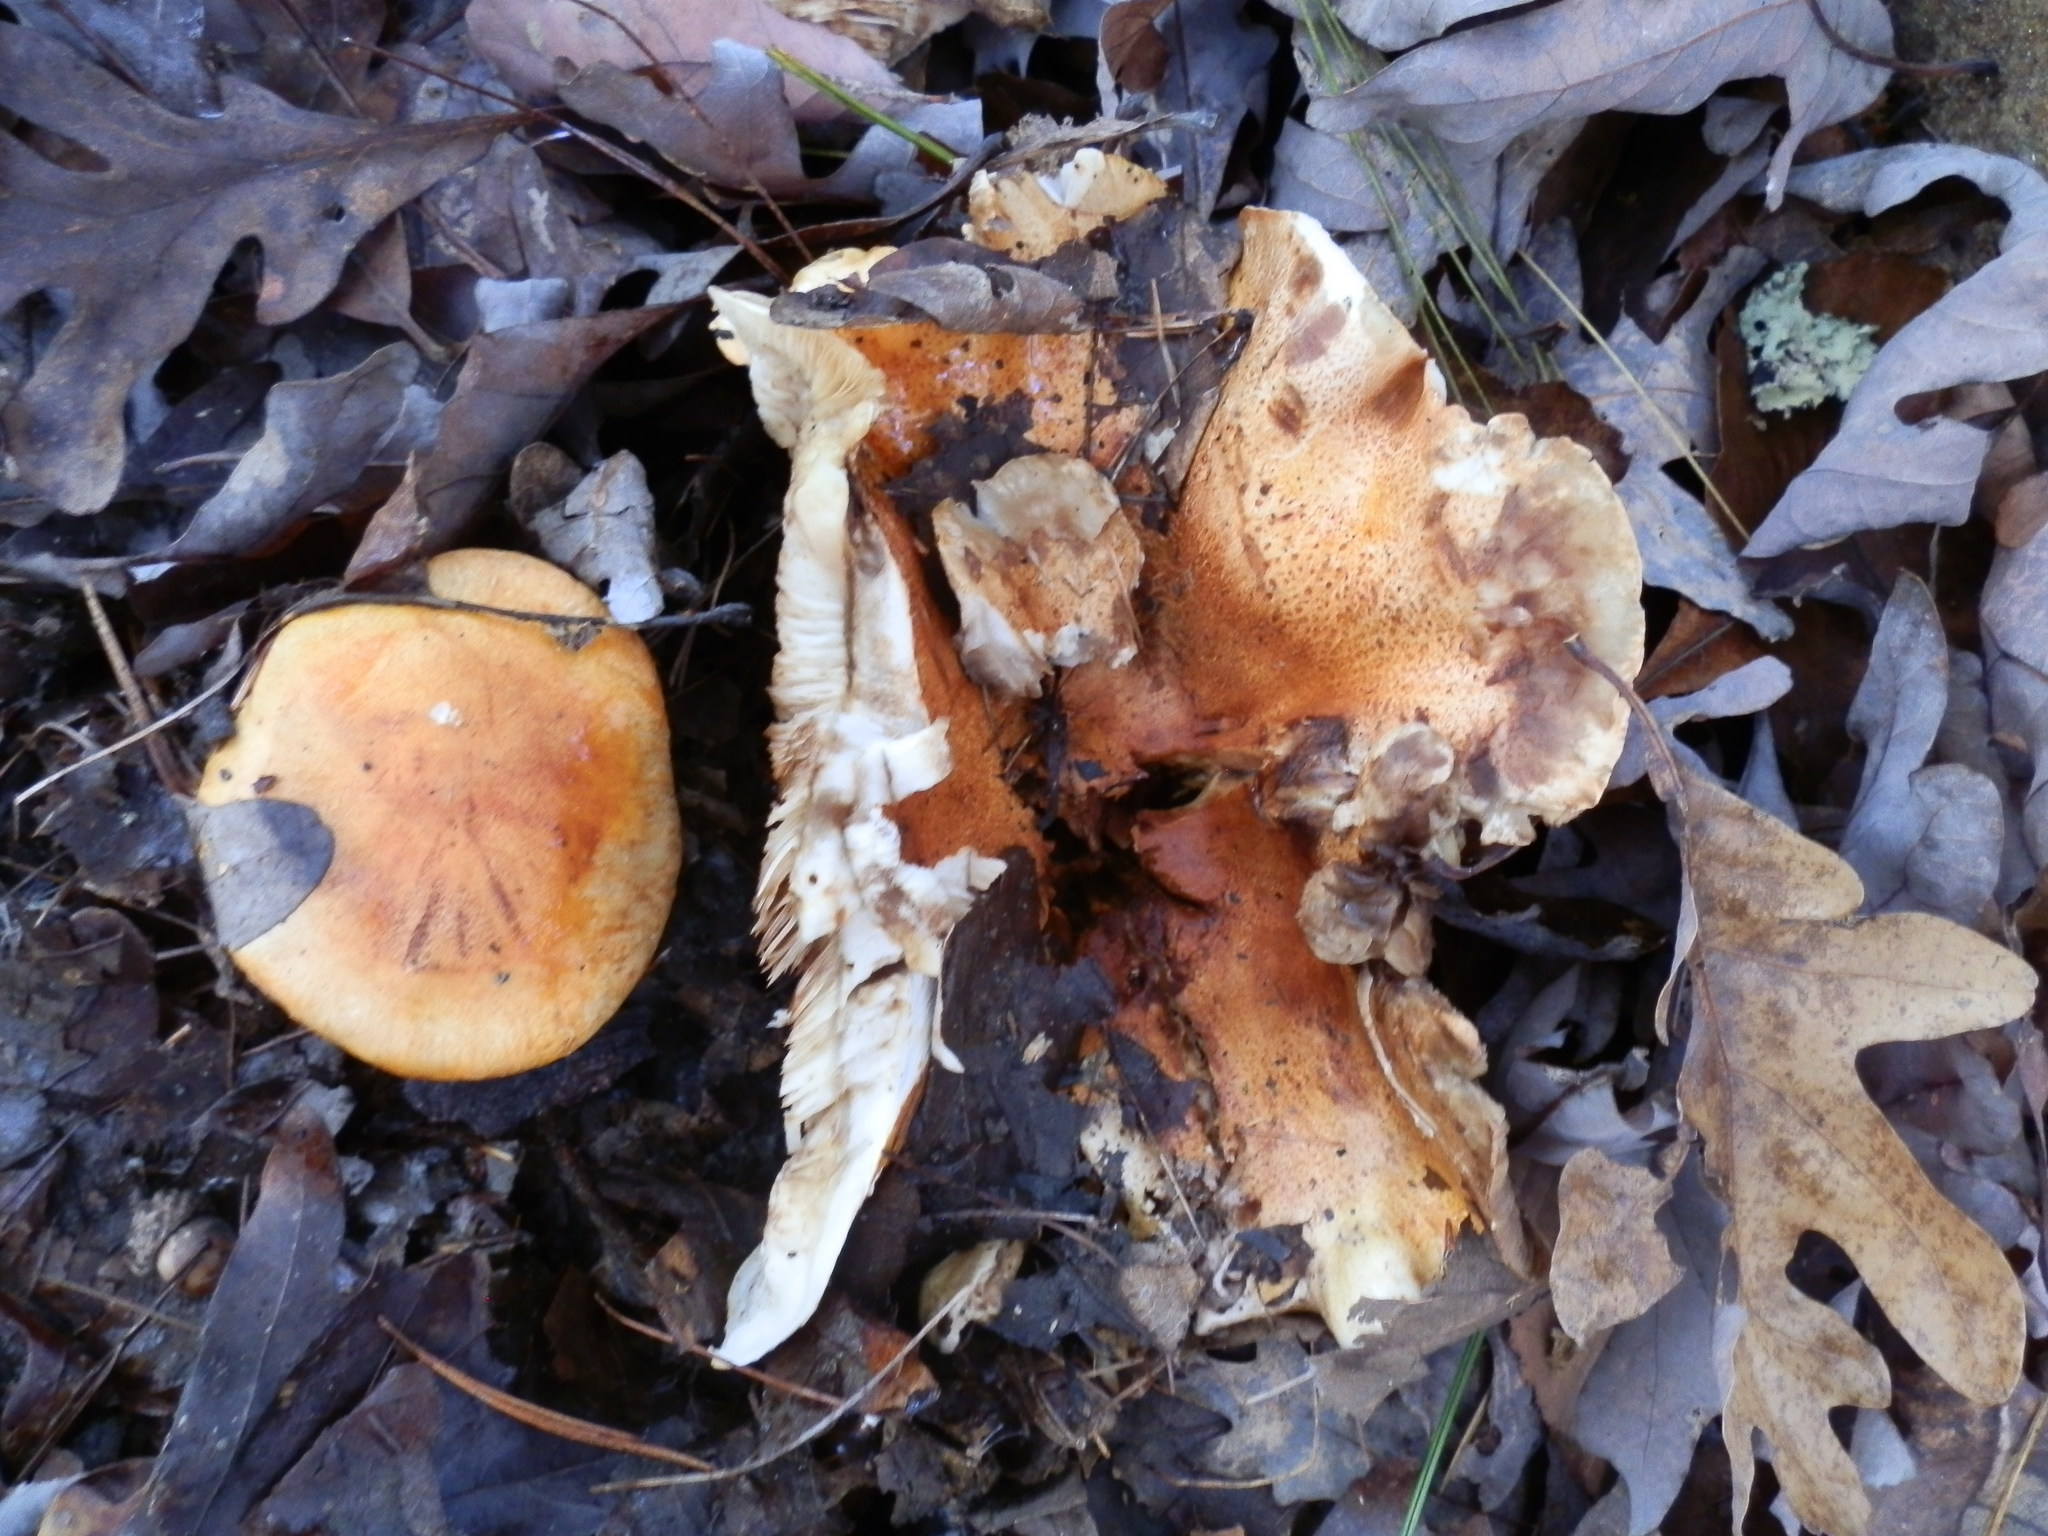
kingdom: Fungi
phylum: Basidiomycota
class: Agaricomycetes
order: Agaricales
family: Tricholomataceae
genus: Tricholoma
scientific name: Tricholoma aurantium
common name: Orange knight
